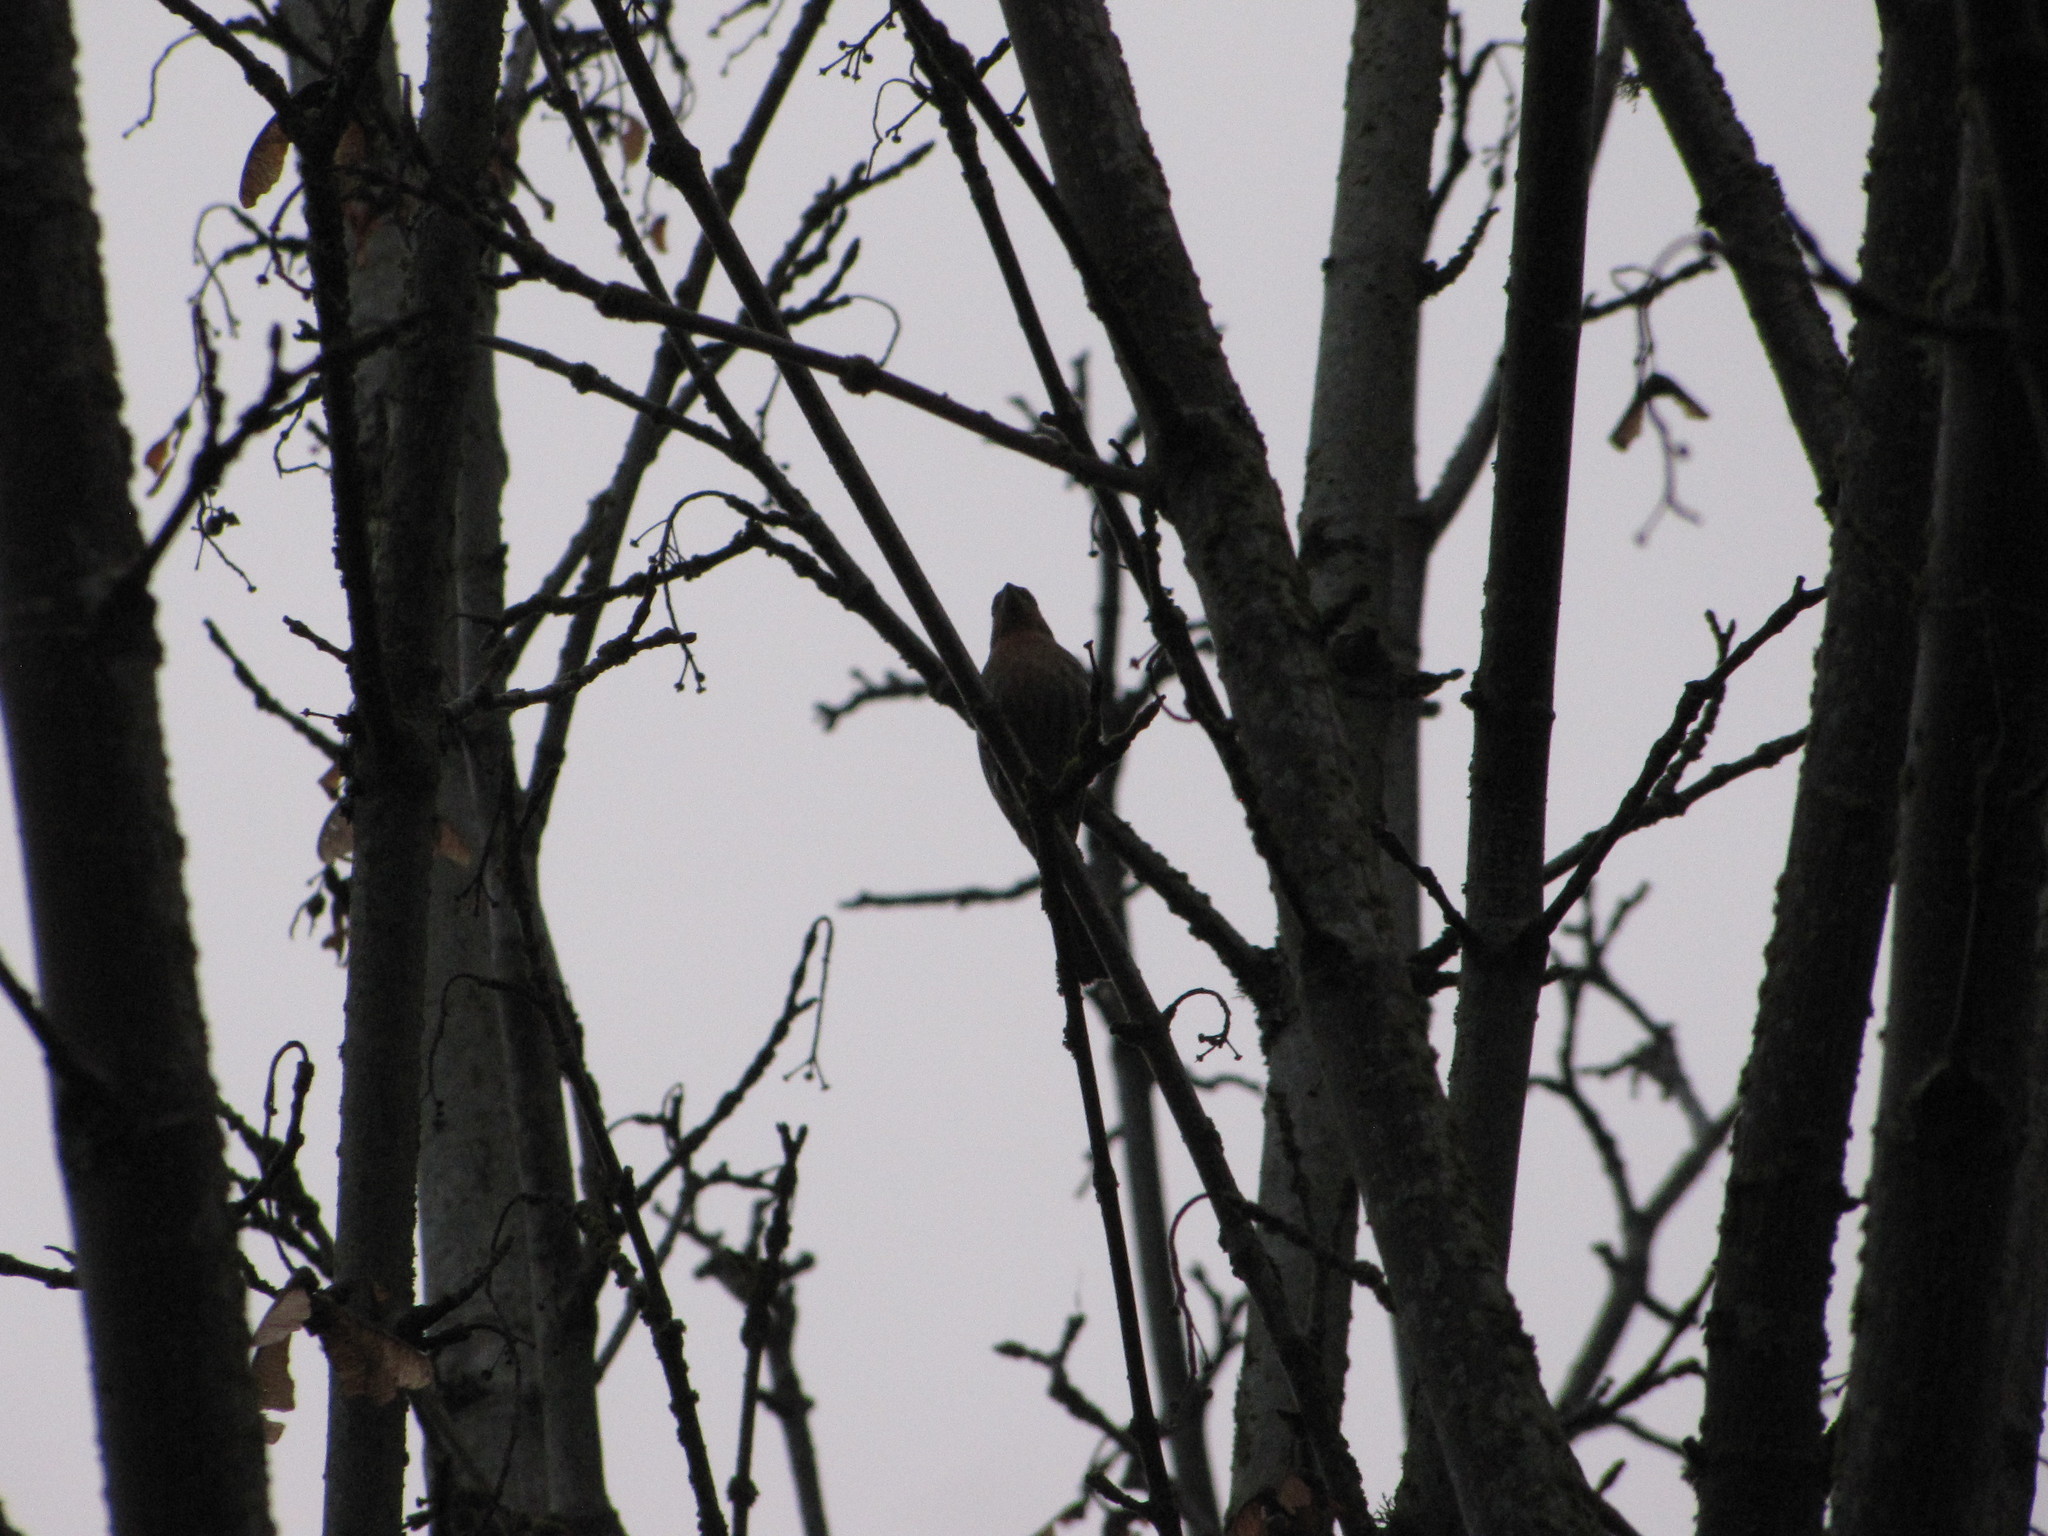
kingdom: Animalia
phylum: Chordata
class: Aves
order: Passeriformes
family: Fringillidae
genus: Haemorhous
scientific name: Haemorhous mexicanus
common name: House finch
